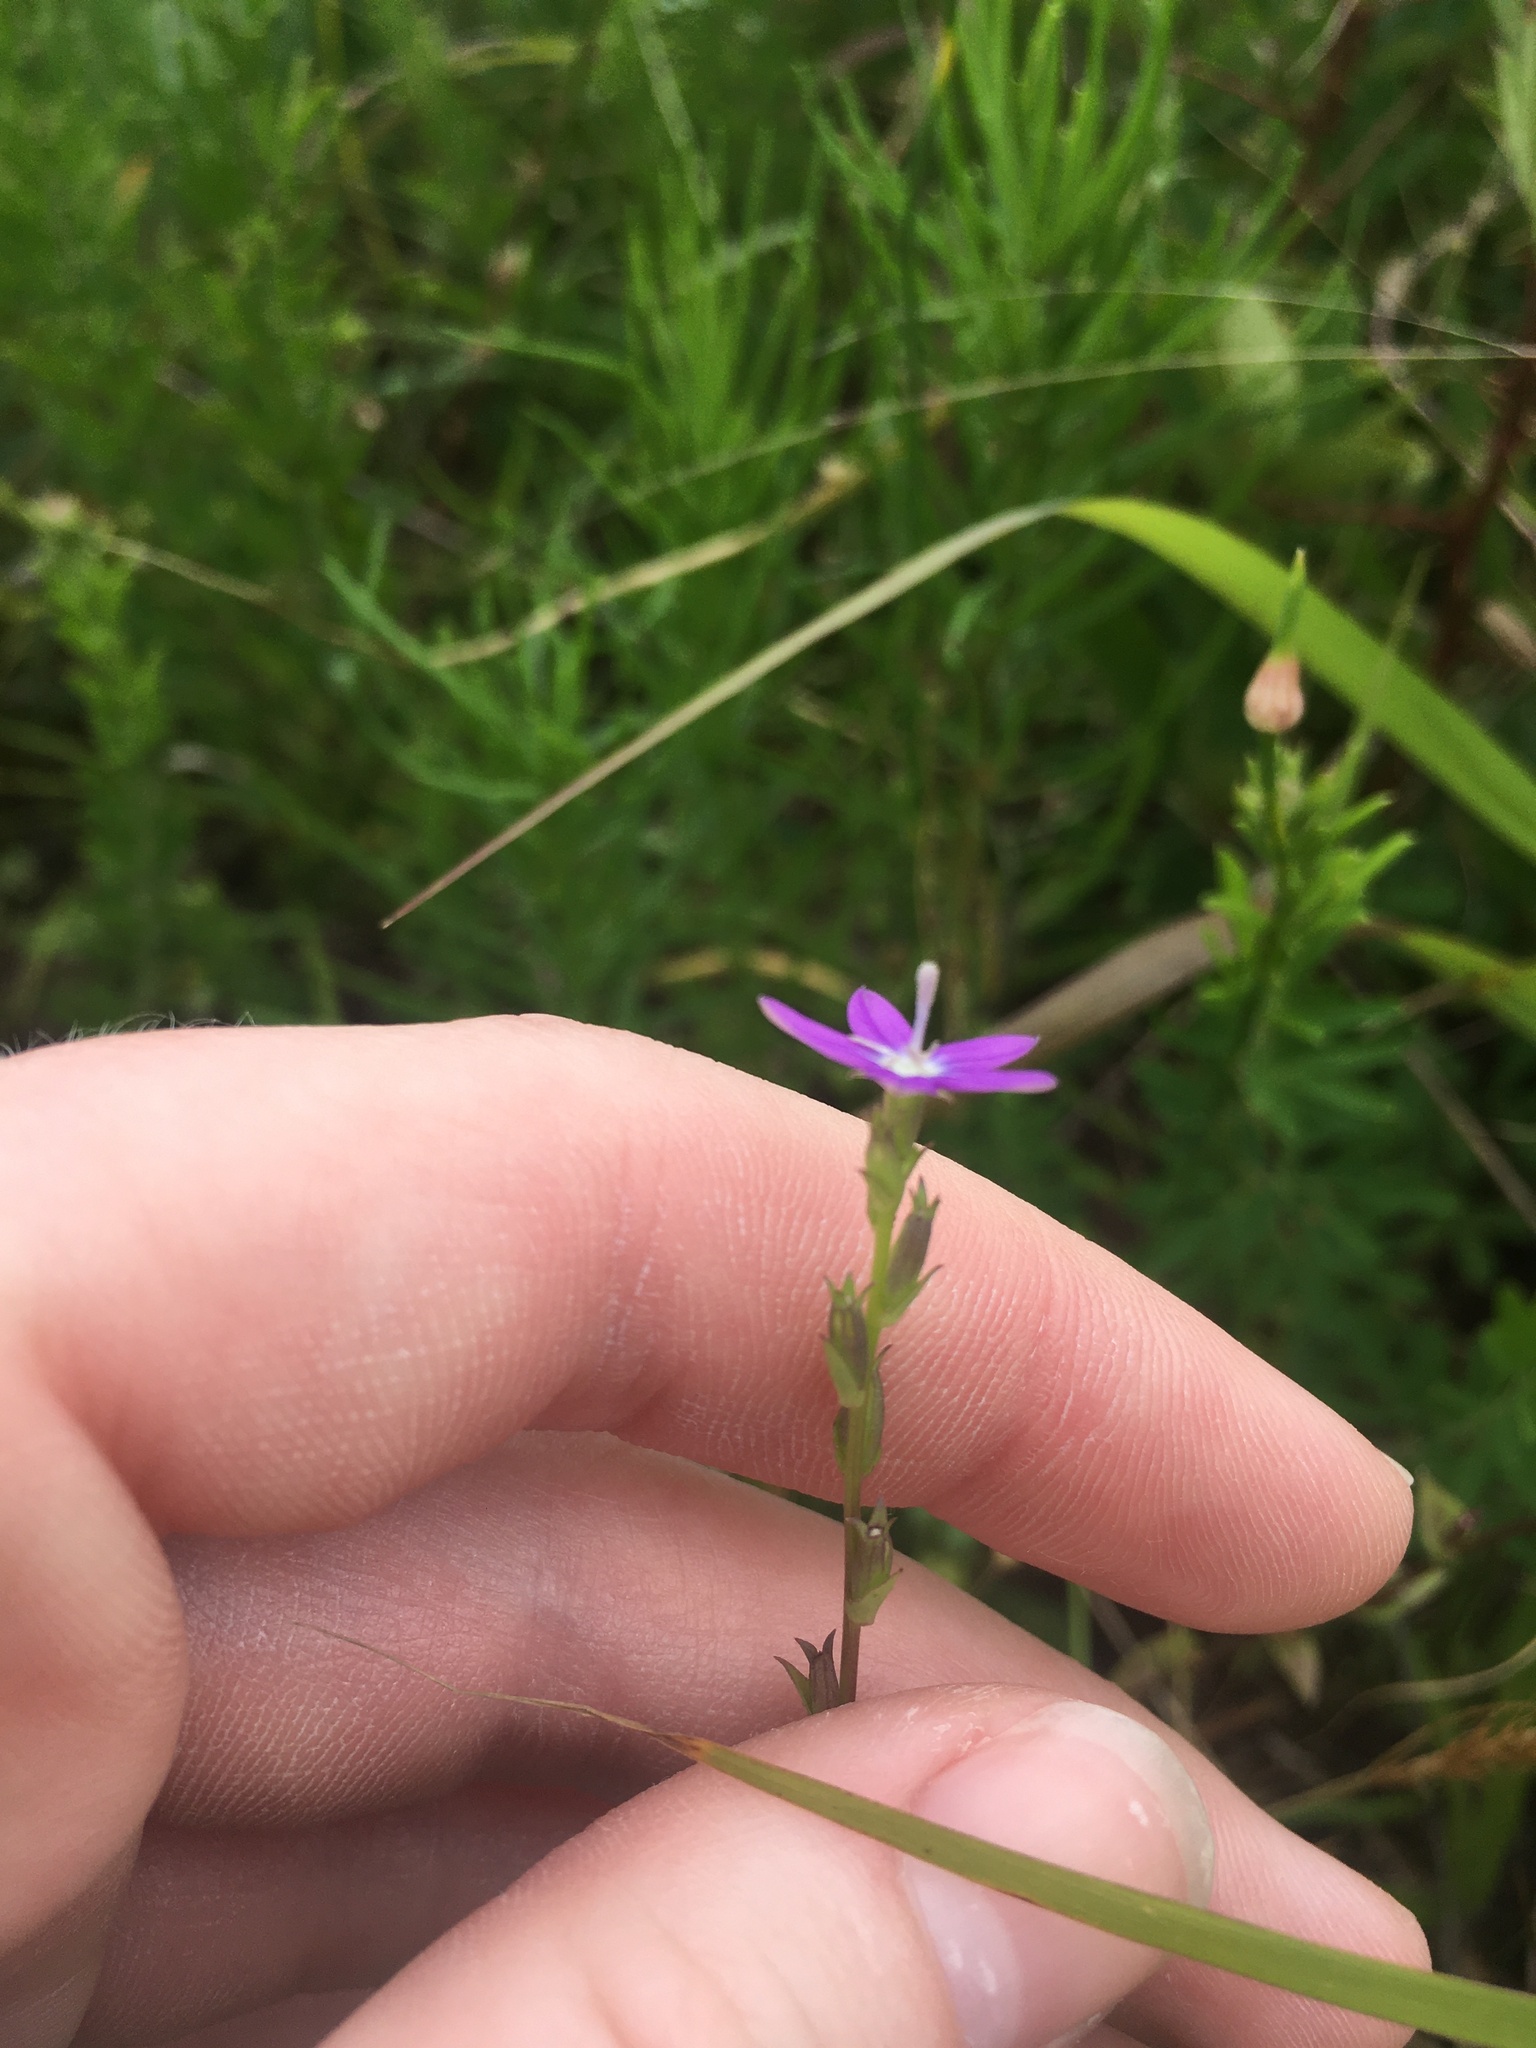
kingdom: Plantae
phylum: Tracheophyta
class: Magnoliopsida
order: Asterales
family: Campanulaceae
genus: Triodanis
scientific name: Triodanis biflora
